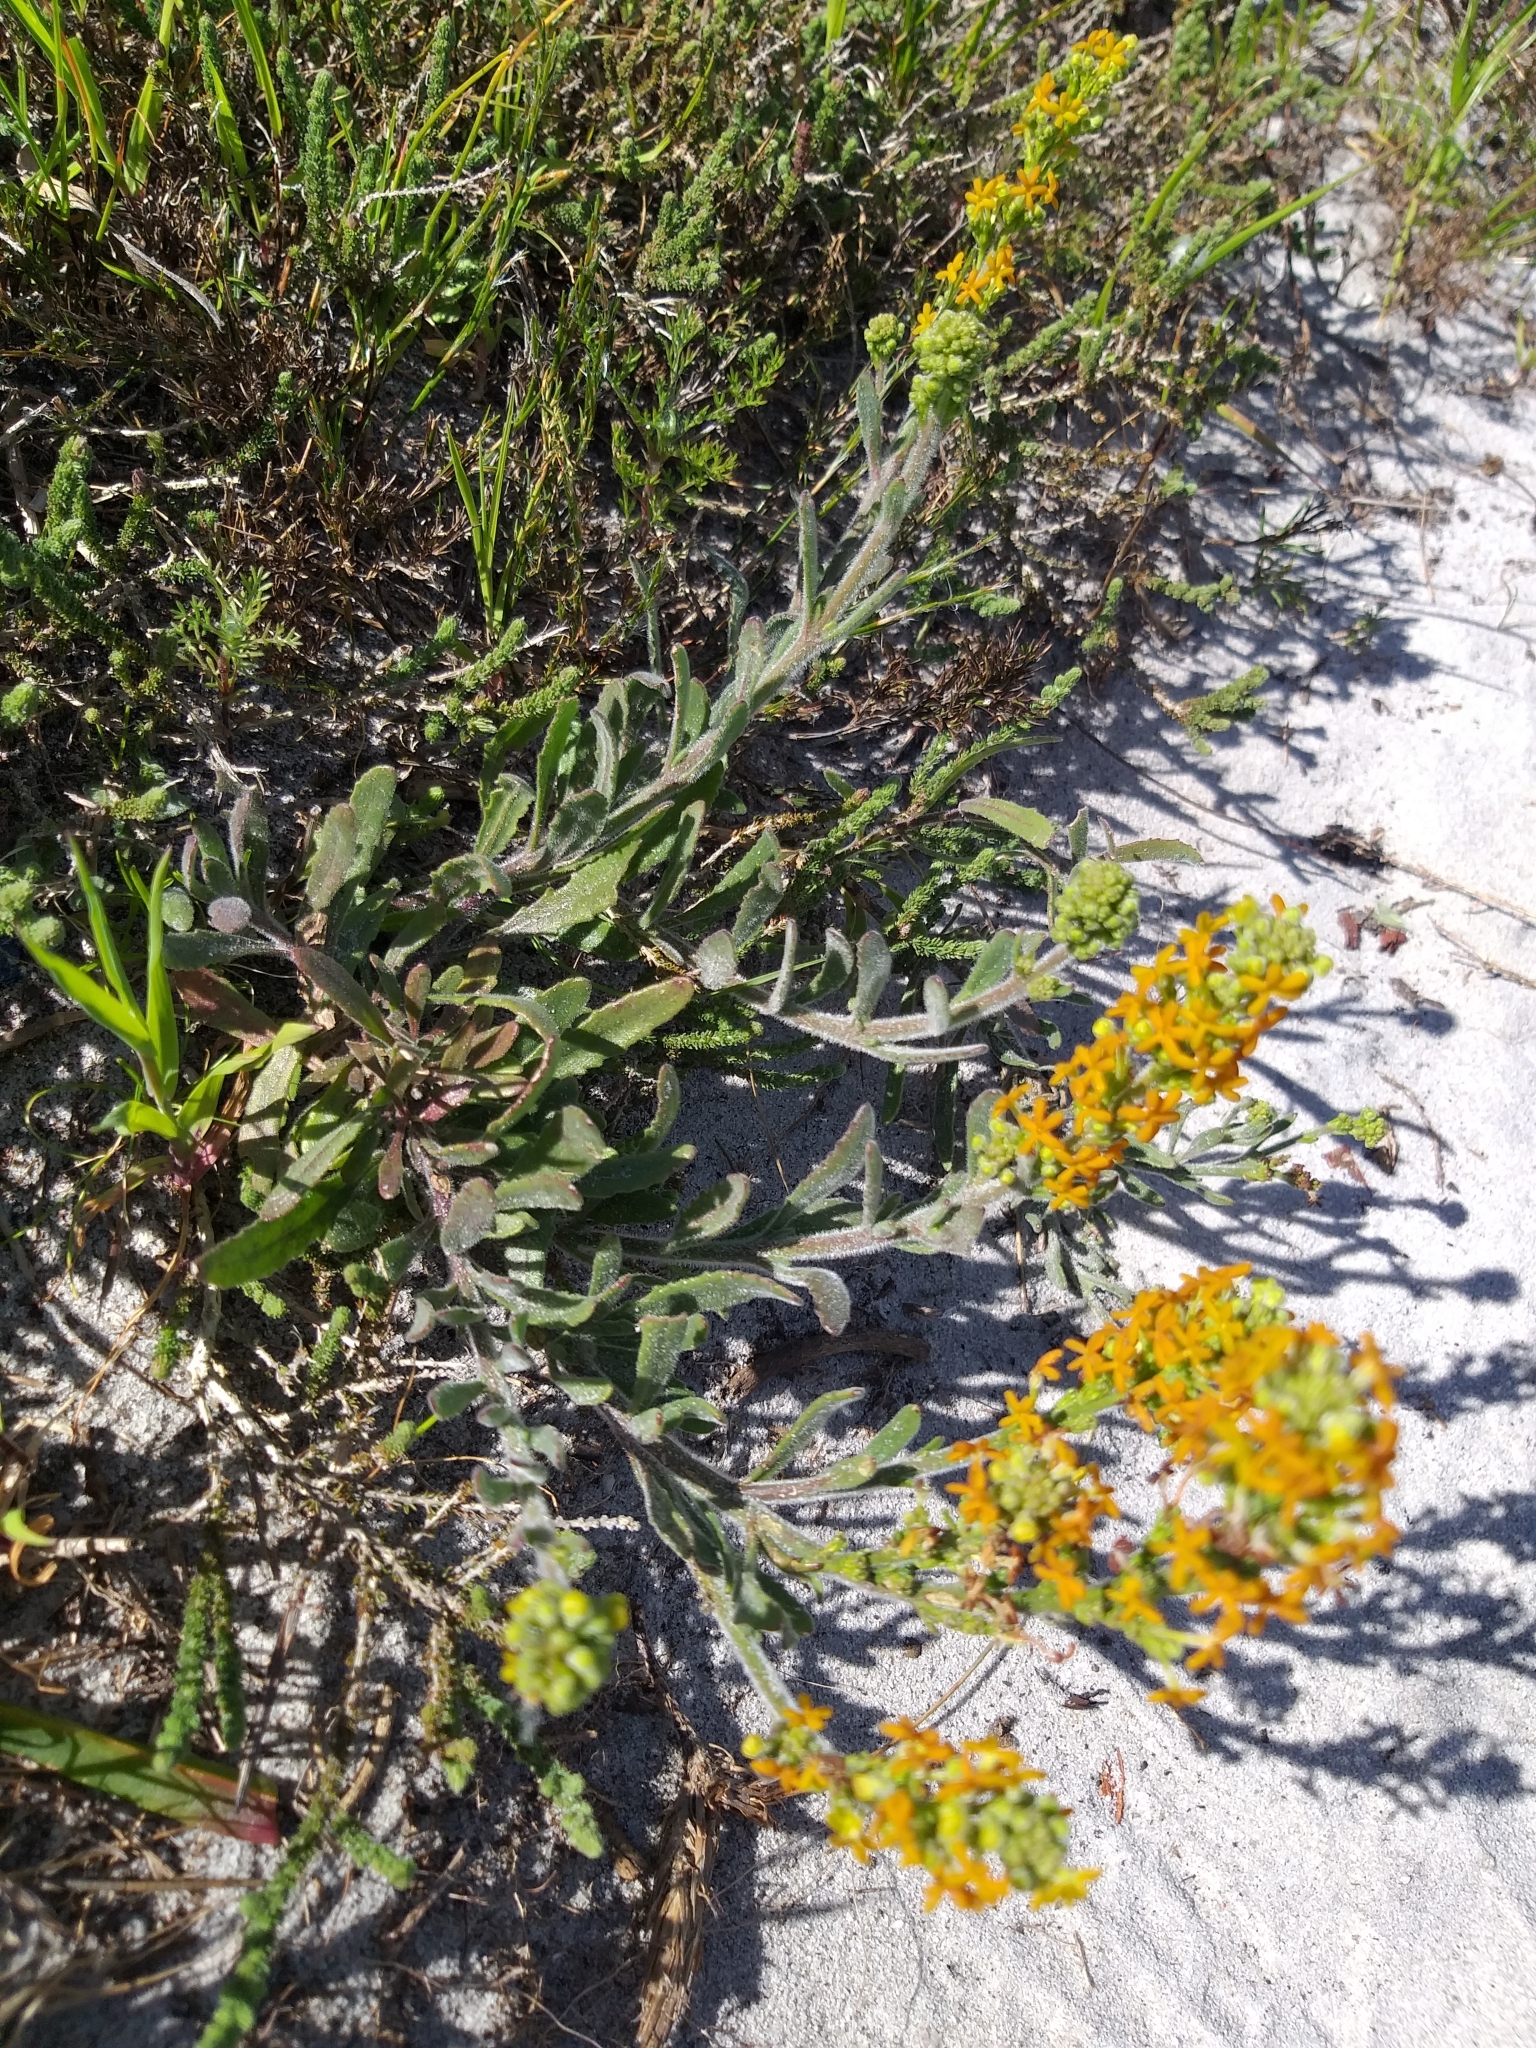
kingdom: Plantae
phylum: Tracheophyta
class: Magnoliopsida
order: Lamiales
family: Scrophulariaceae
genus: Manulea
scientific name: Manulea tomentosa
